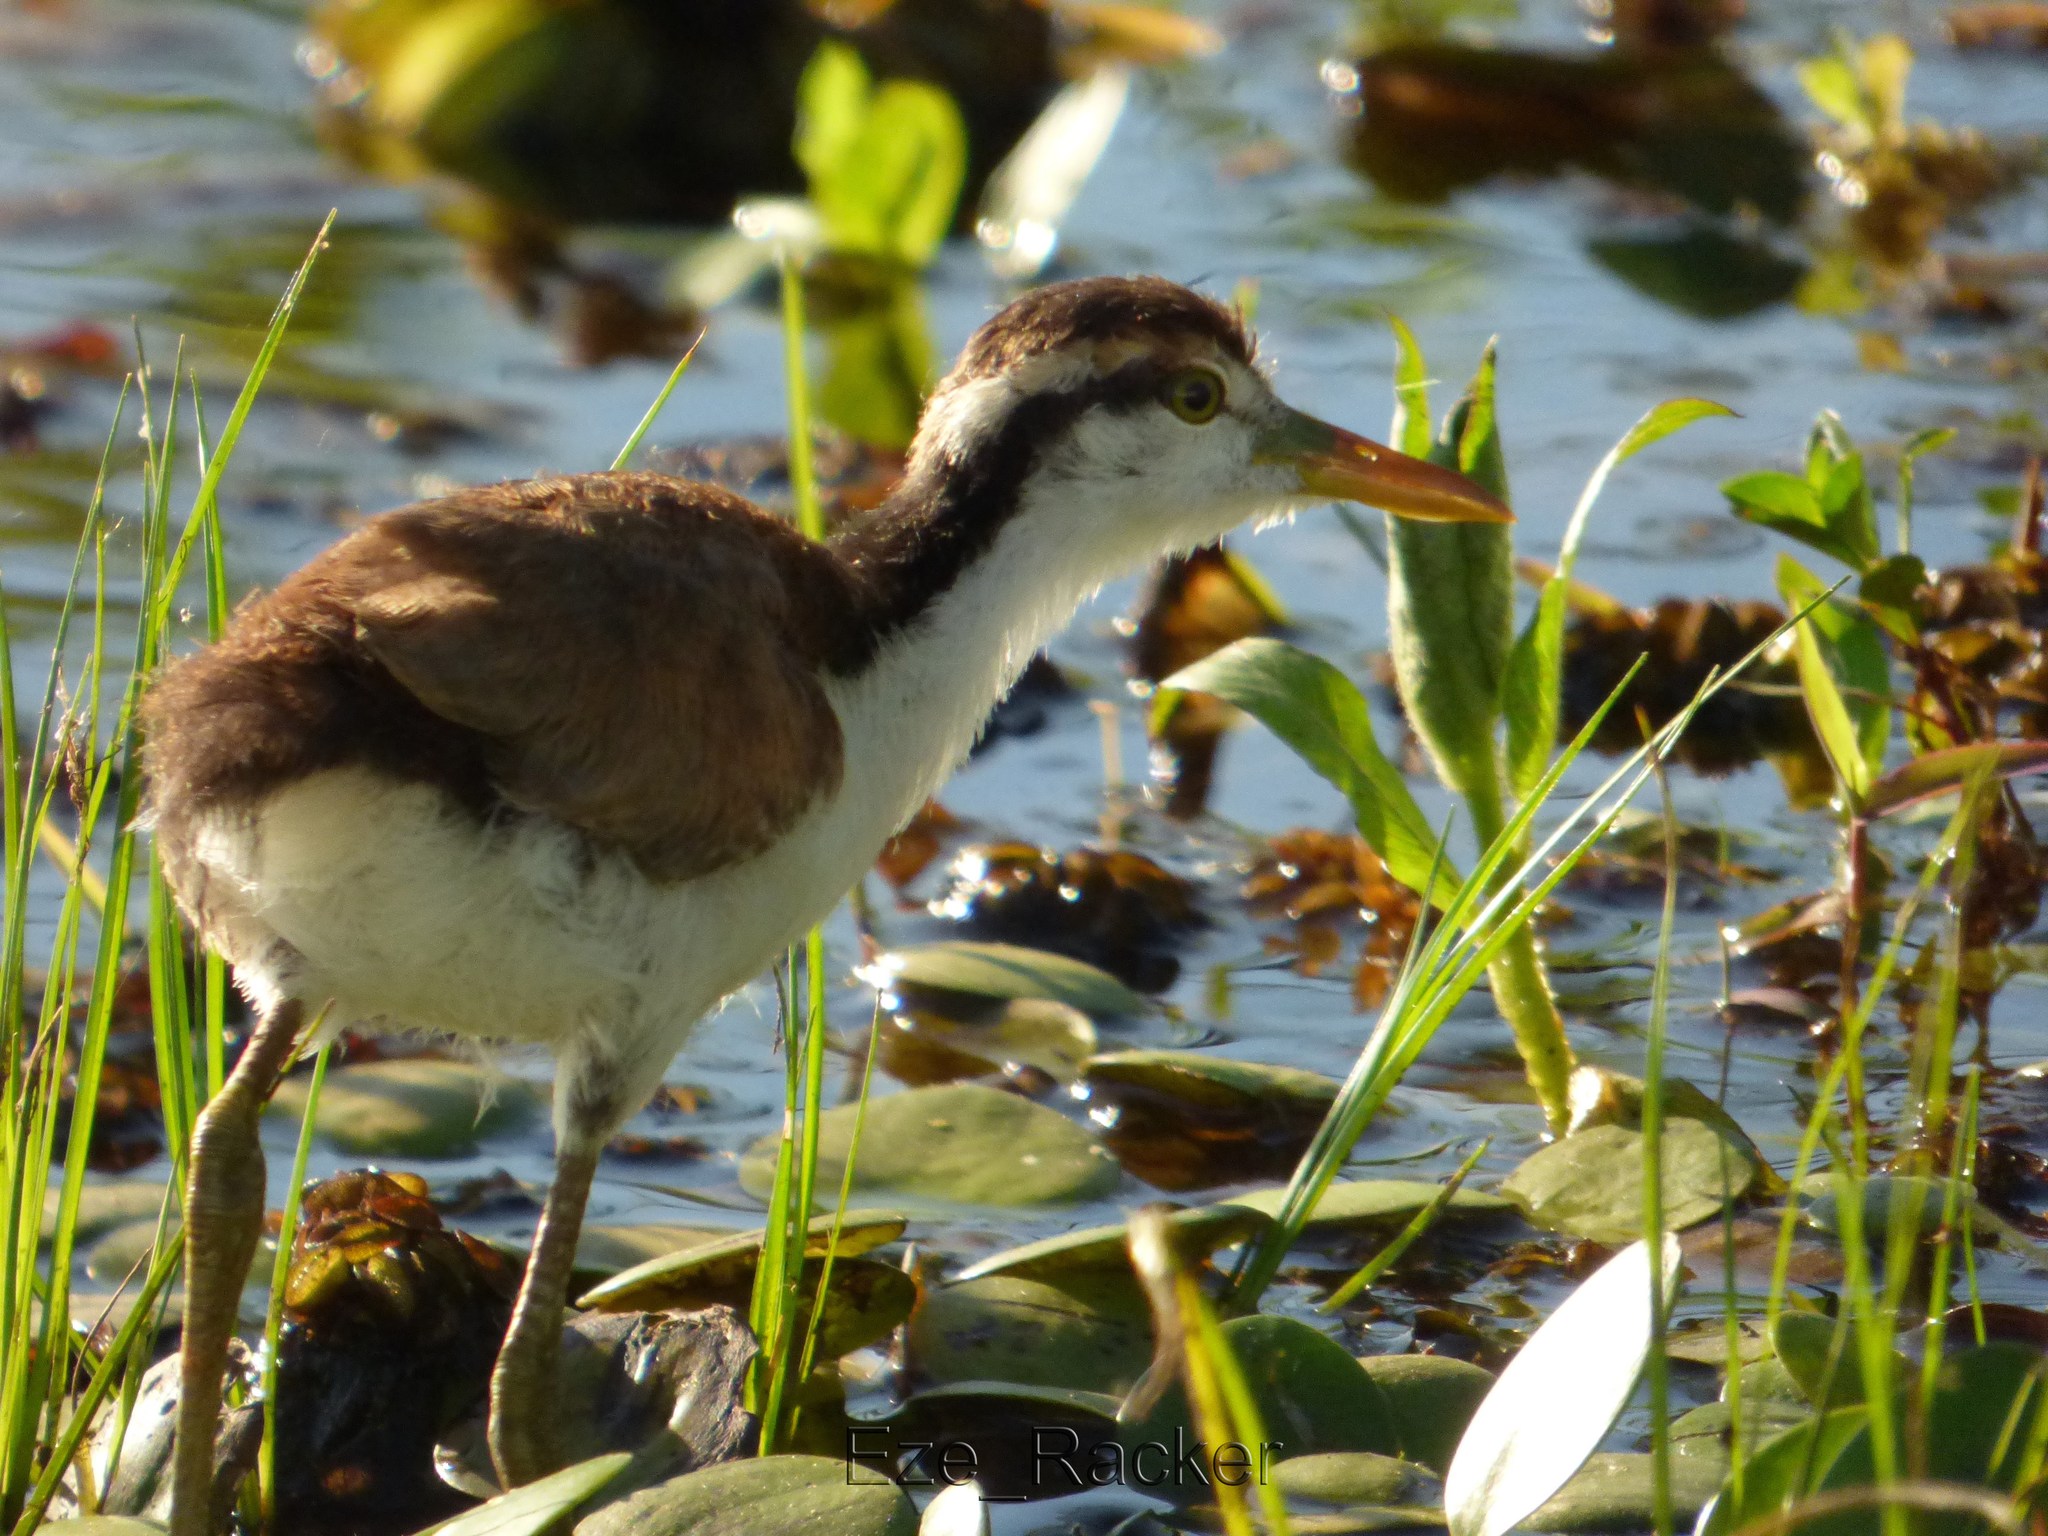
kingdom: Animalia
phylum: Chordata
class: Aves
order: Charadriiformes
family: Jacanidae
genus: Jacana
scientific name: Jacana jacana
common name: Wattled jacana
